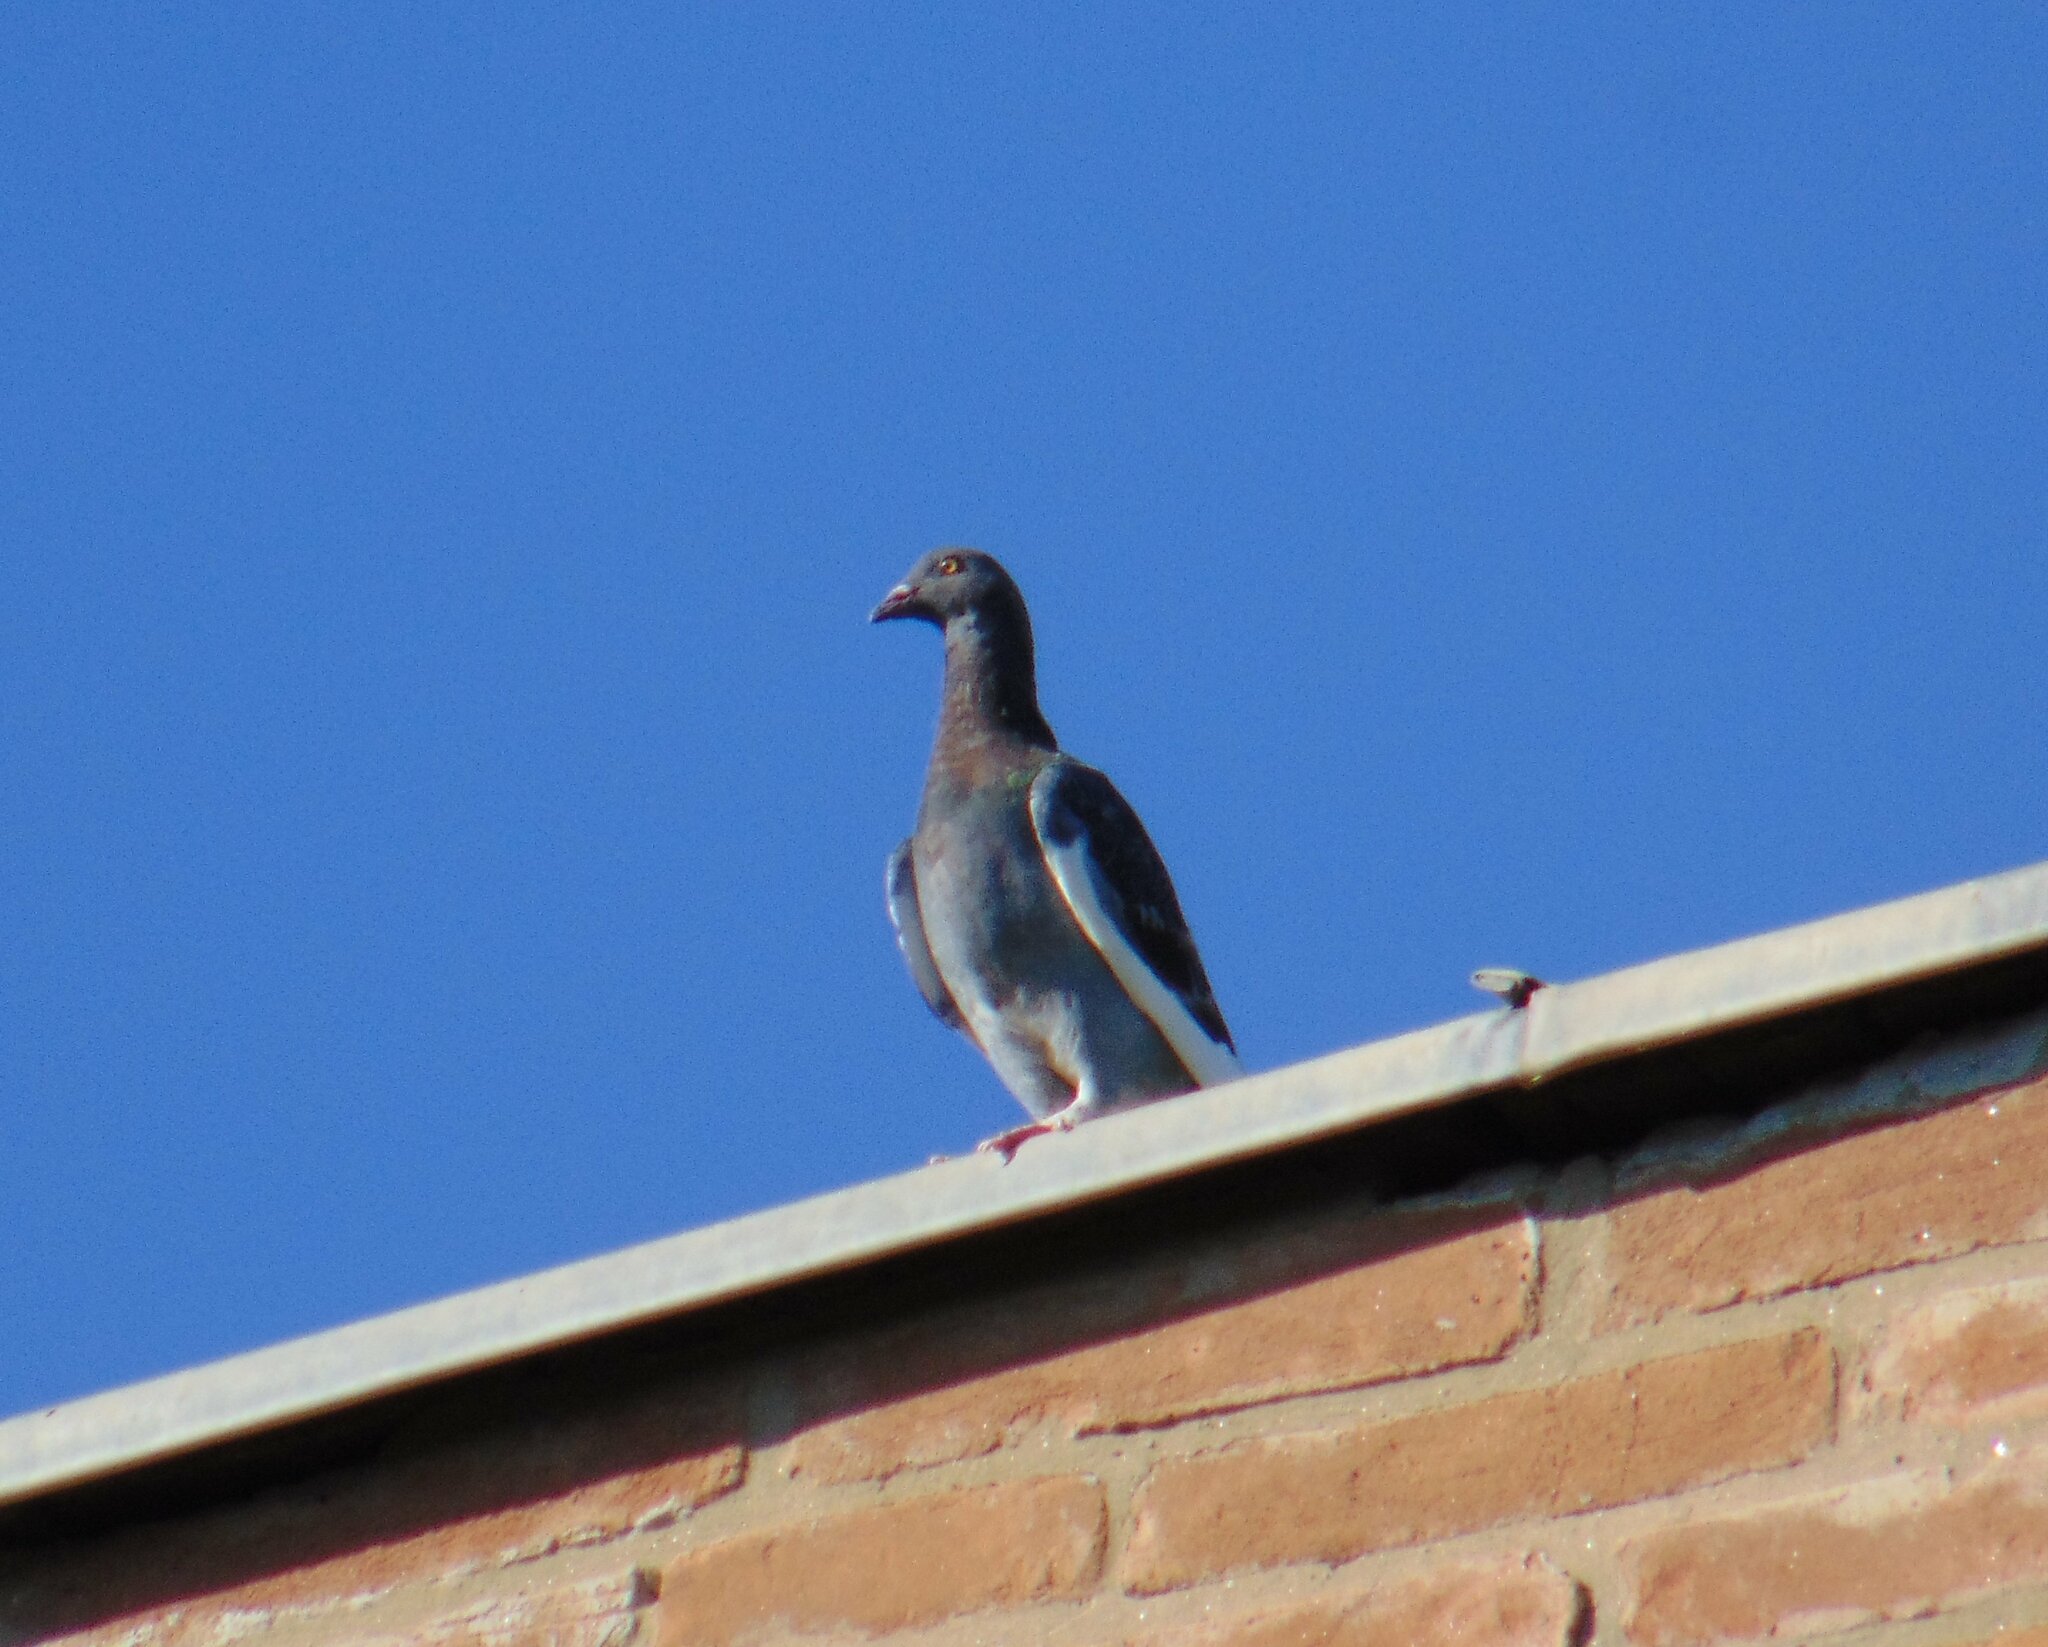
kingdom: Animalia
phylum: Chordata
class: Aves
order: Columbiformes
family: Columbidae
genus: Columba
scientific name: Columba livia
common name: Rock pigeon
